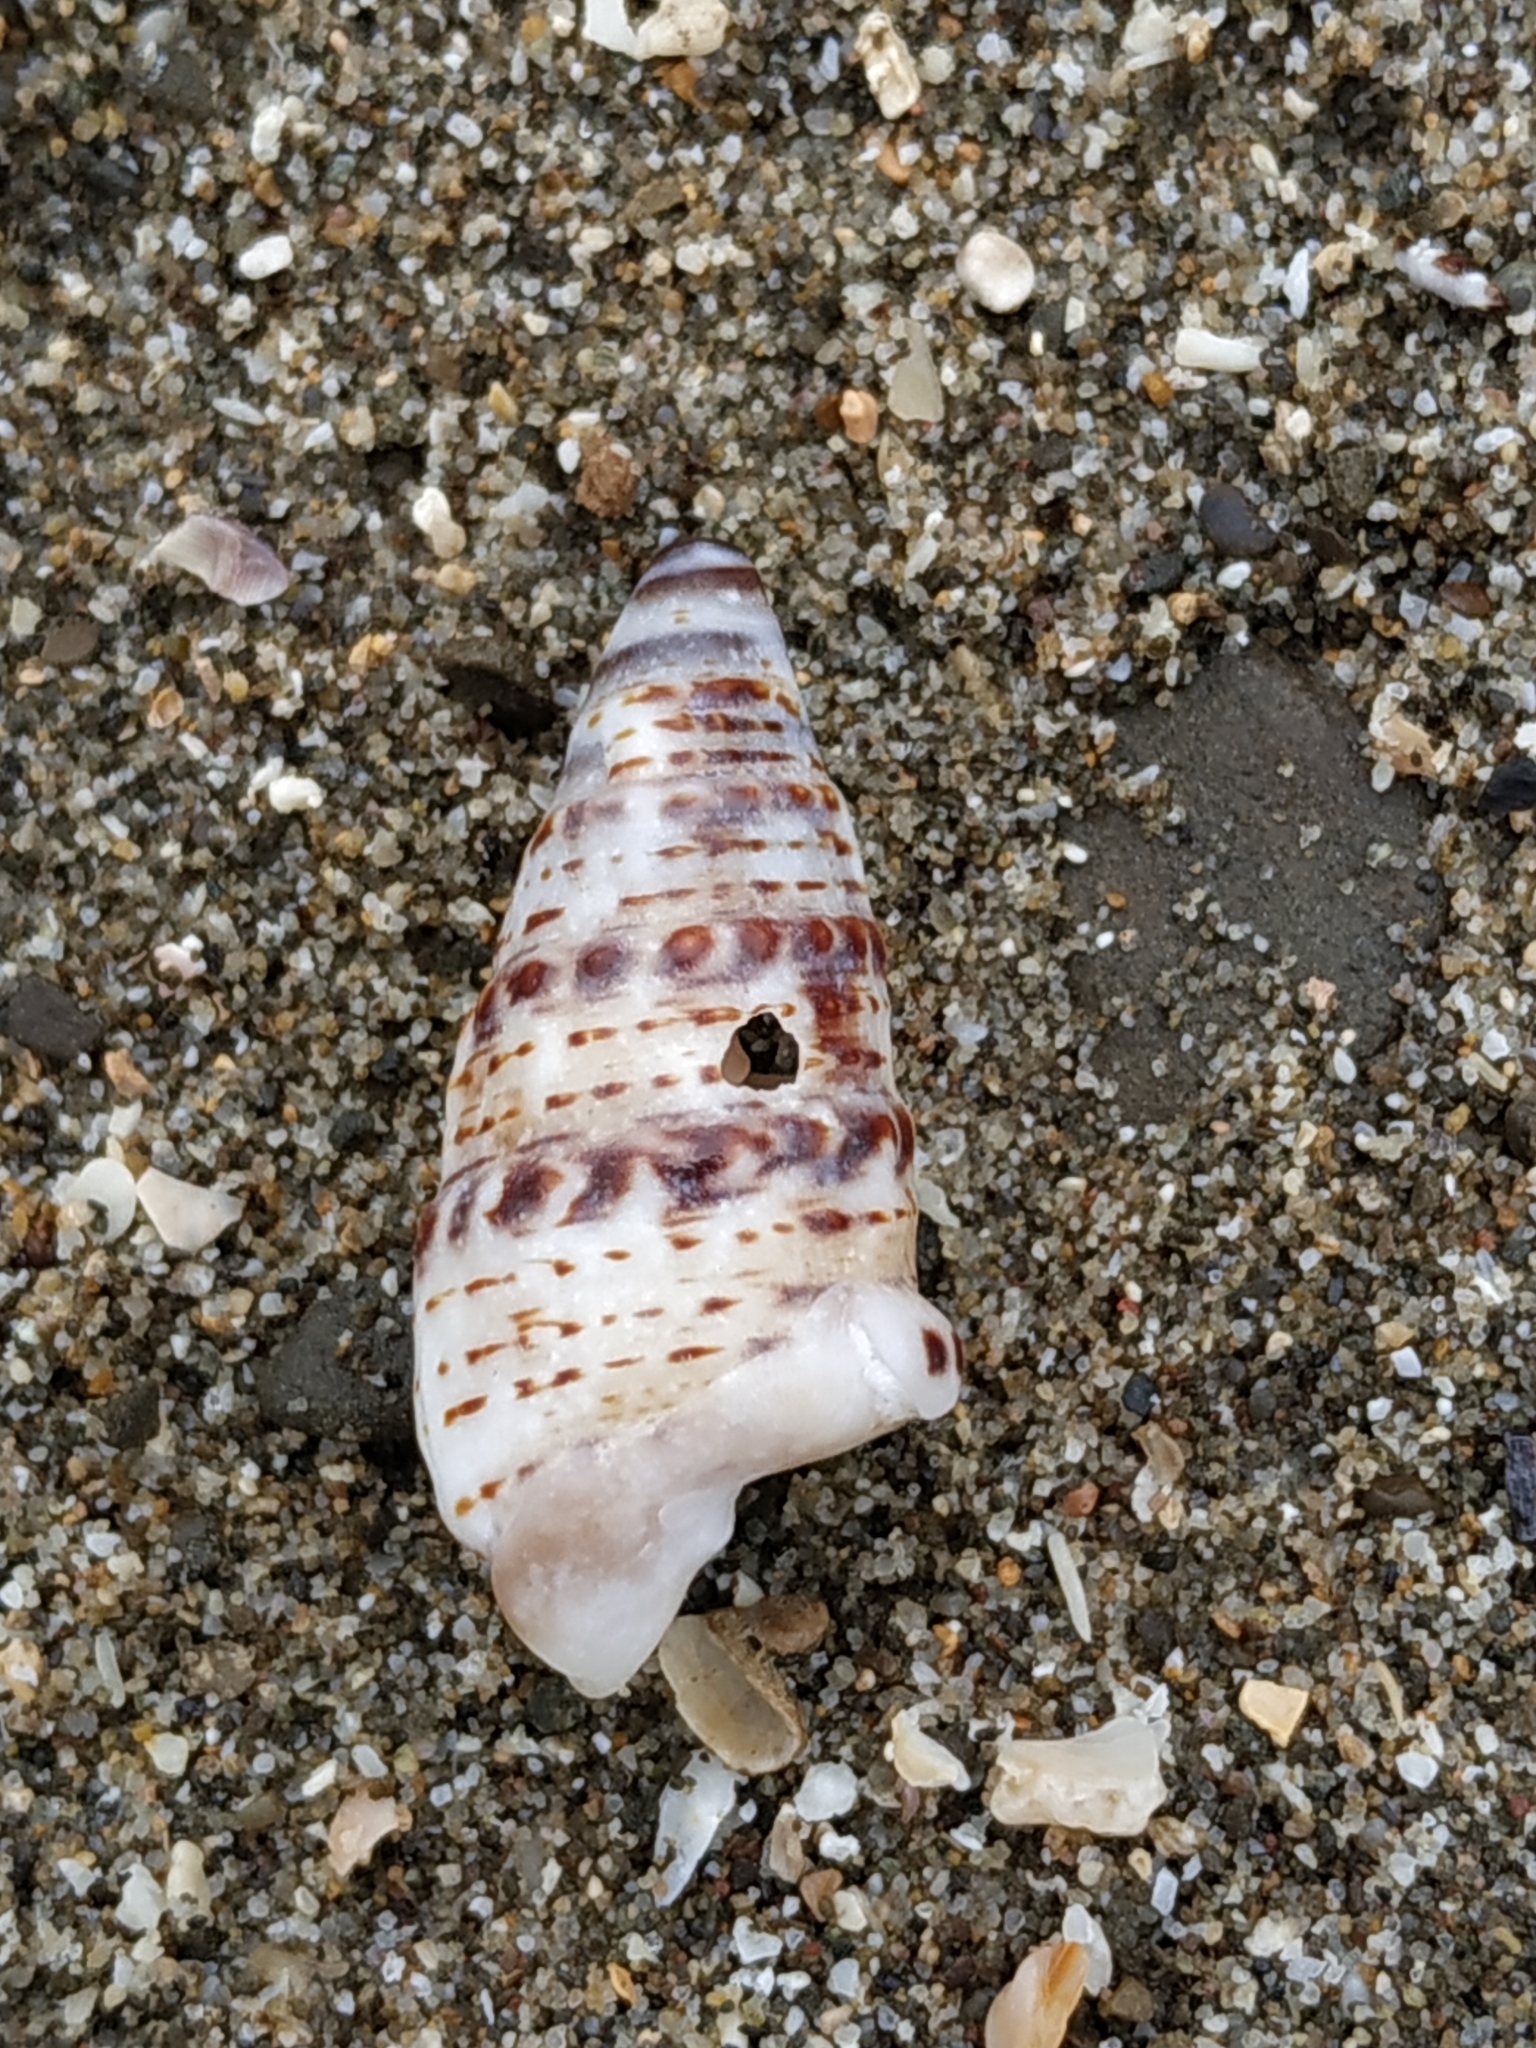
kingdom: Animalia
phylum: Mollusca
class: Gastropoda
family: Cerithiidae
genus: Rhinoclavis
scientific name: Rhinoclavis sinensis
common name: Knobbled horn shell
